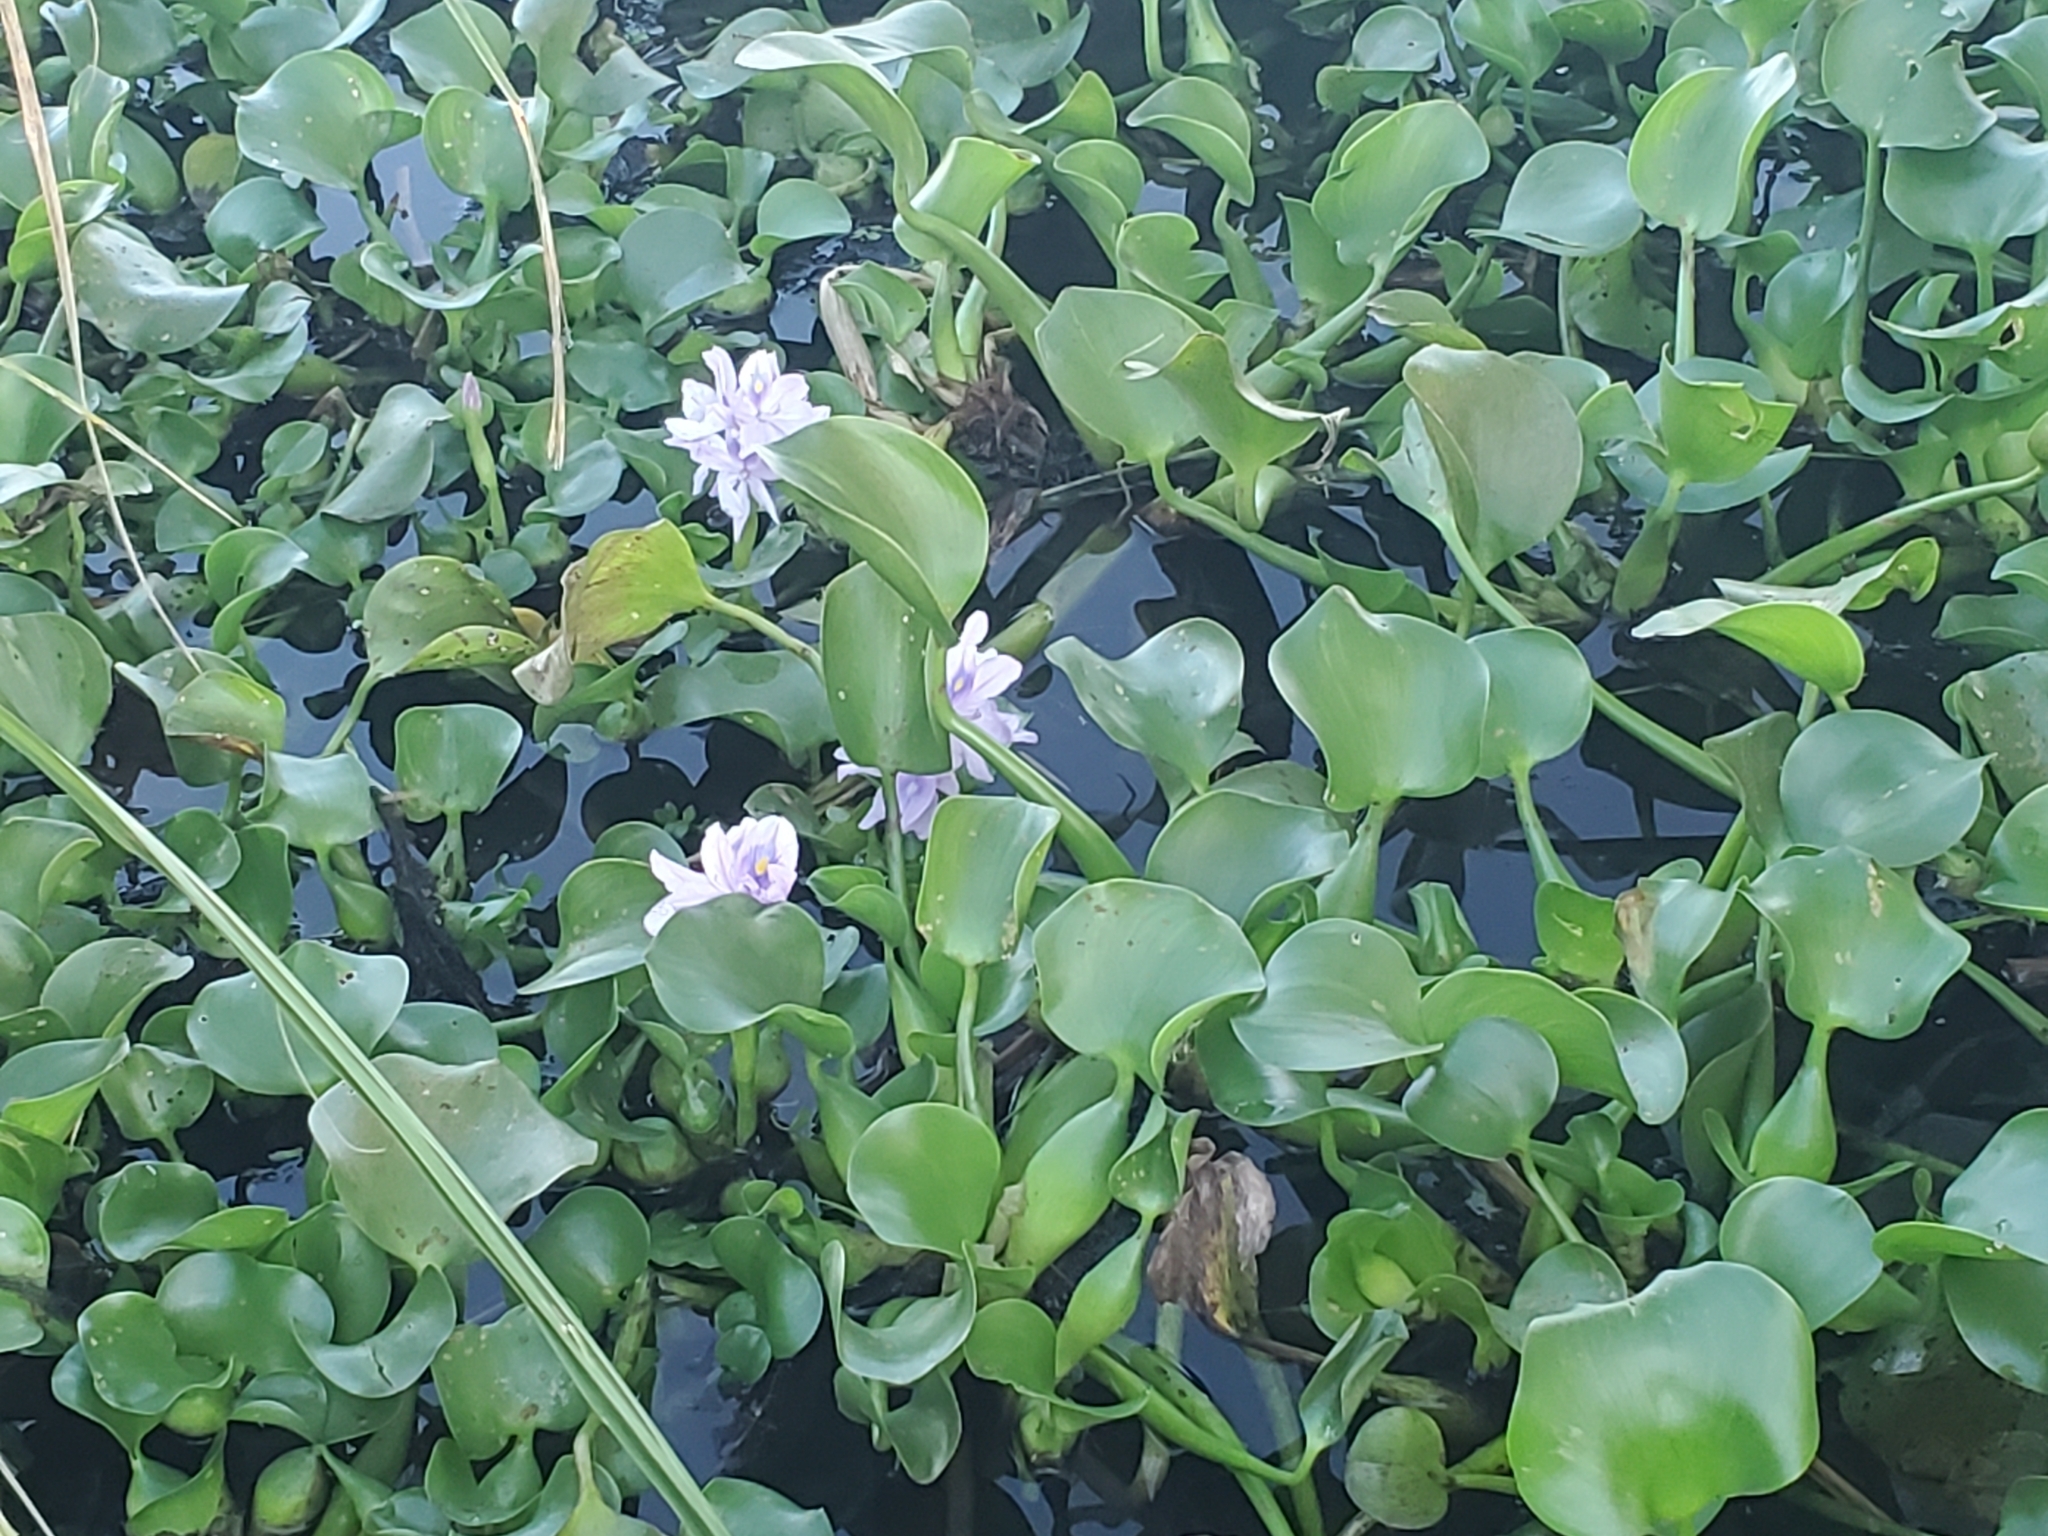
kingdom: Plantae
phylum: Tracheophyta
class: Liliopsida
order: Commelinales
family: Pontederiaceae
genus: Pontederia
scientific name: Pontederia crassipes
